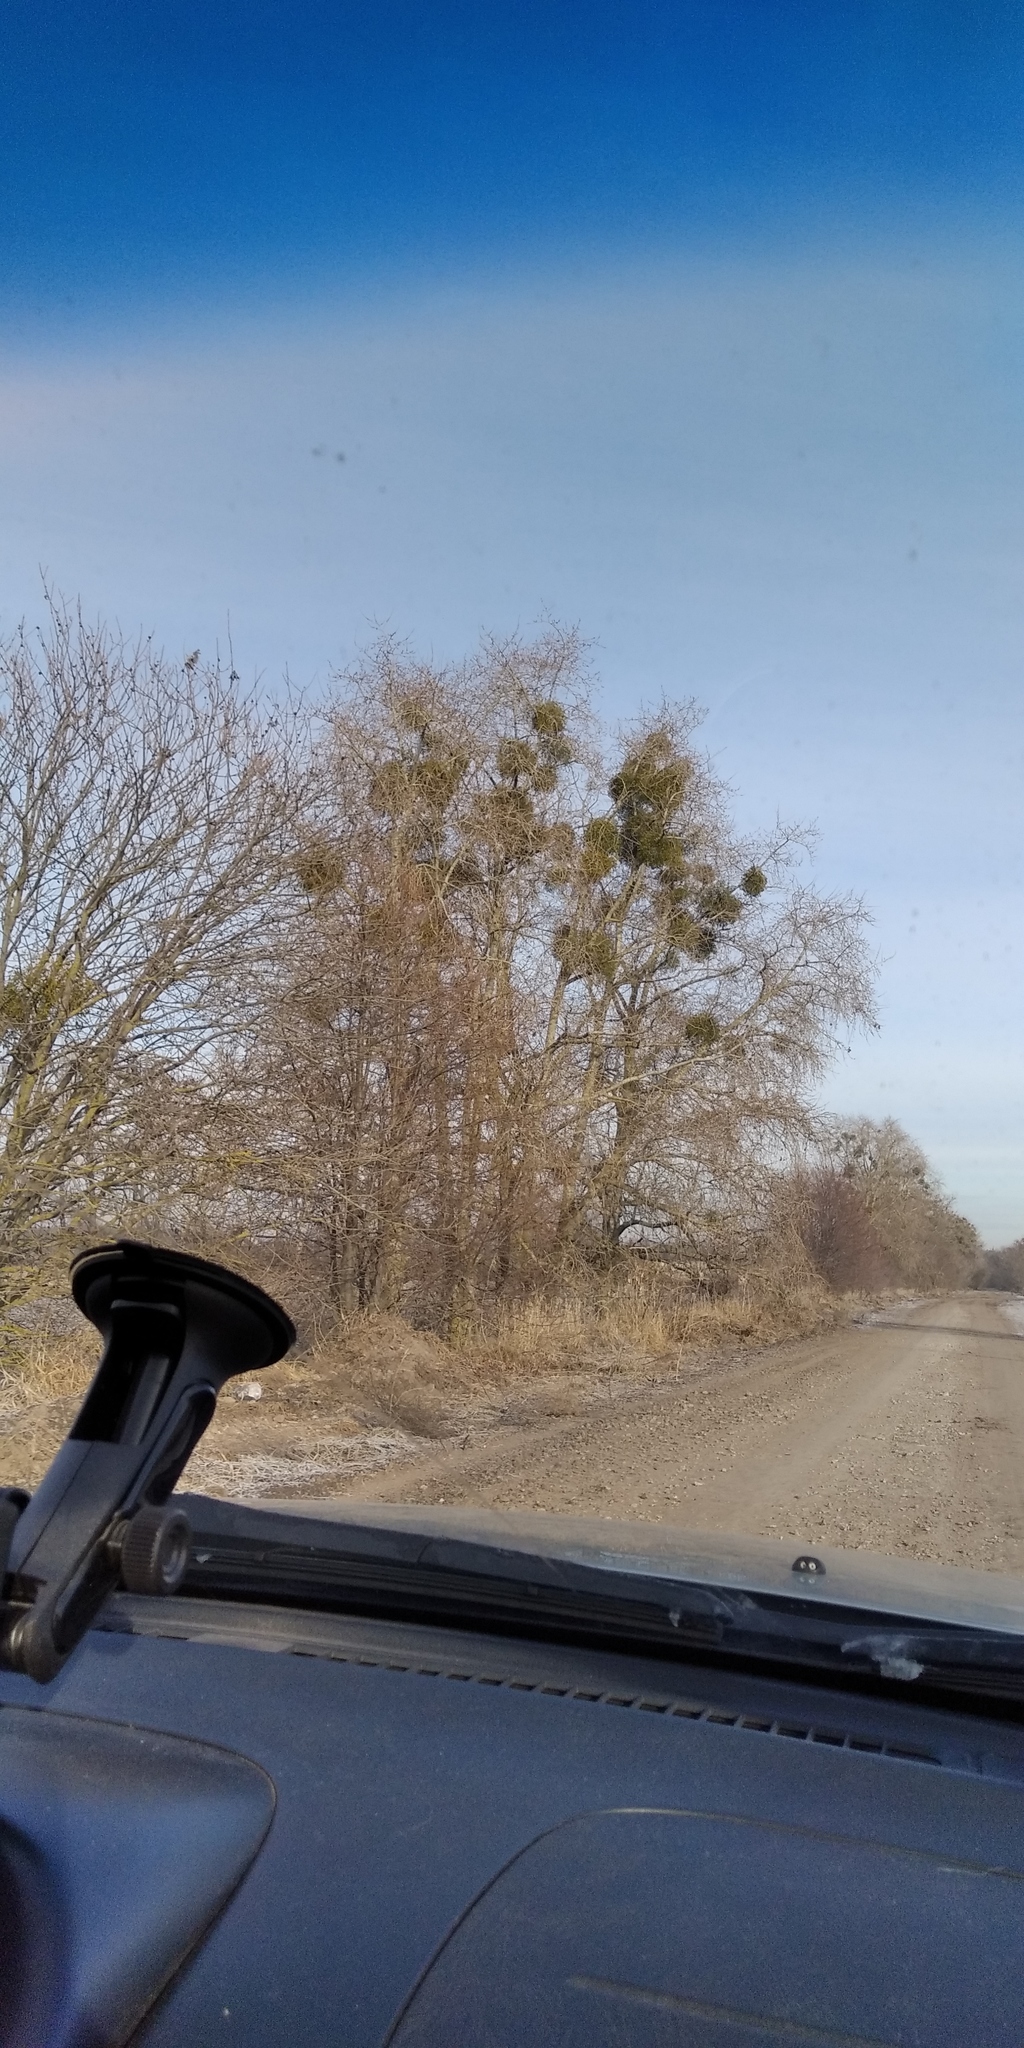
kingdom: Plantae
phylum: Tracheophyta
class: Magnoliopsida
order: Santalales
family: Viscaceae
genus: Viscum
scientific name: Viscum album
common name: Mistletoe
